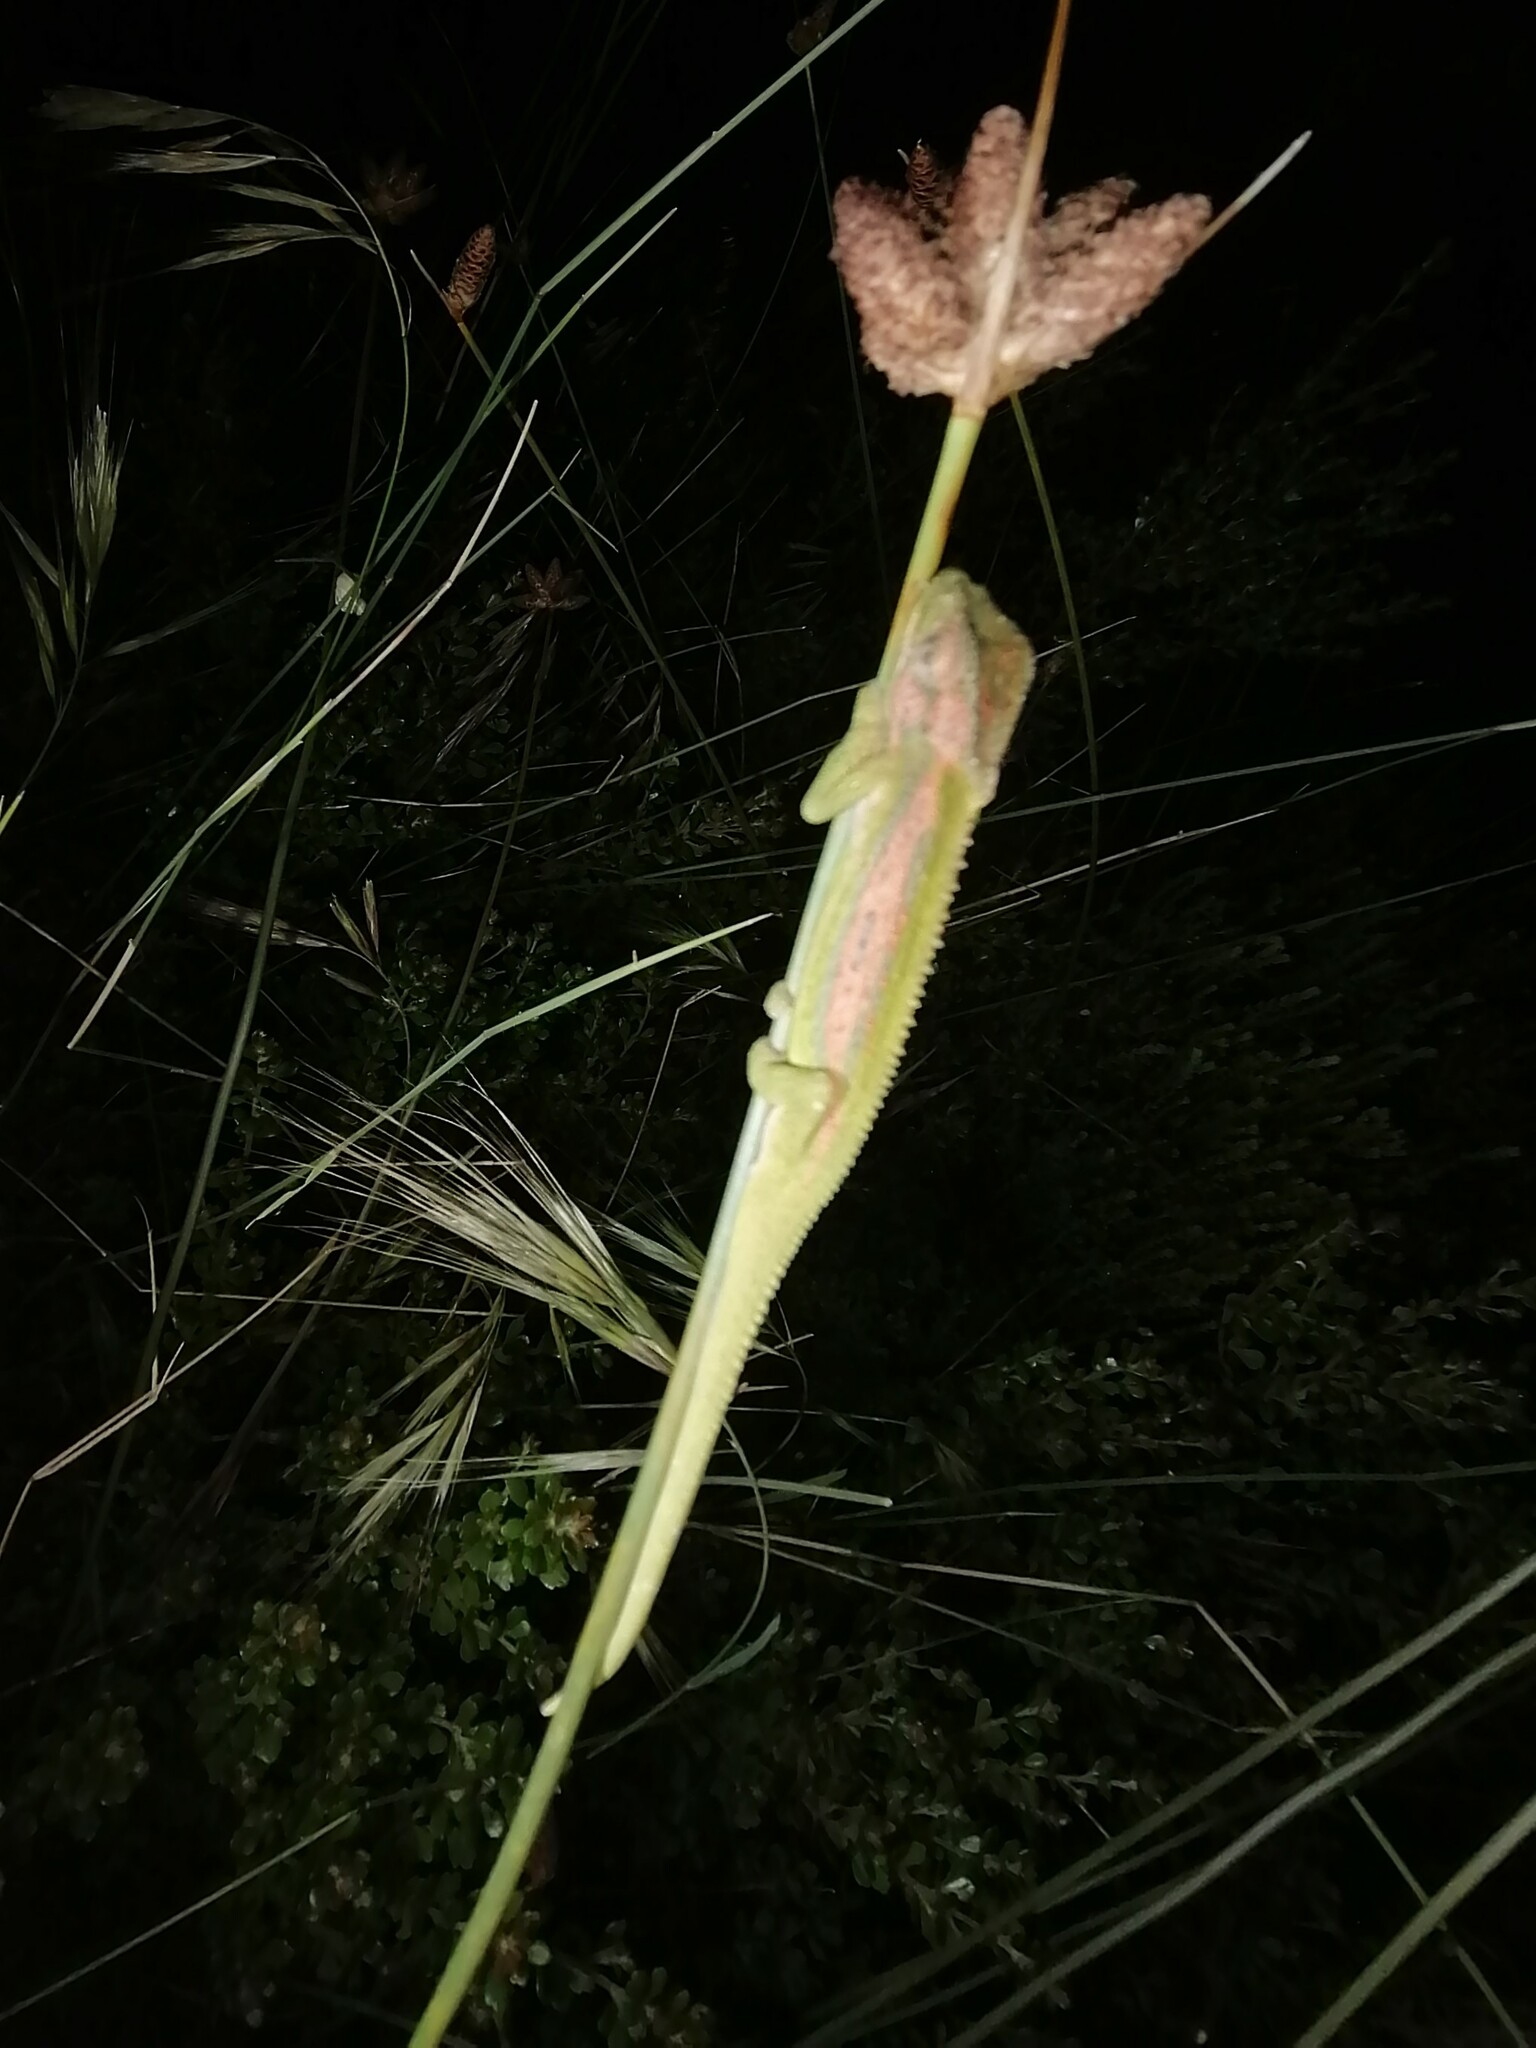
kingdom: Animalia
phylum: Chordata
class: Squamata
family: Chamaeleonidae
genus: Bradypodion
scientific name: Bradypodion pumilum
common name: Cape dwarf chameleon
